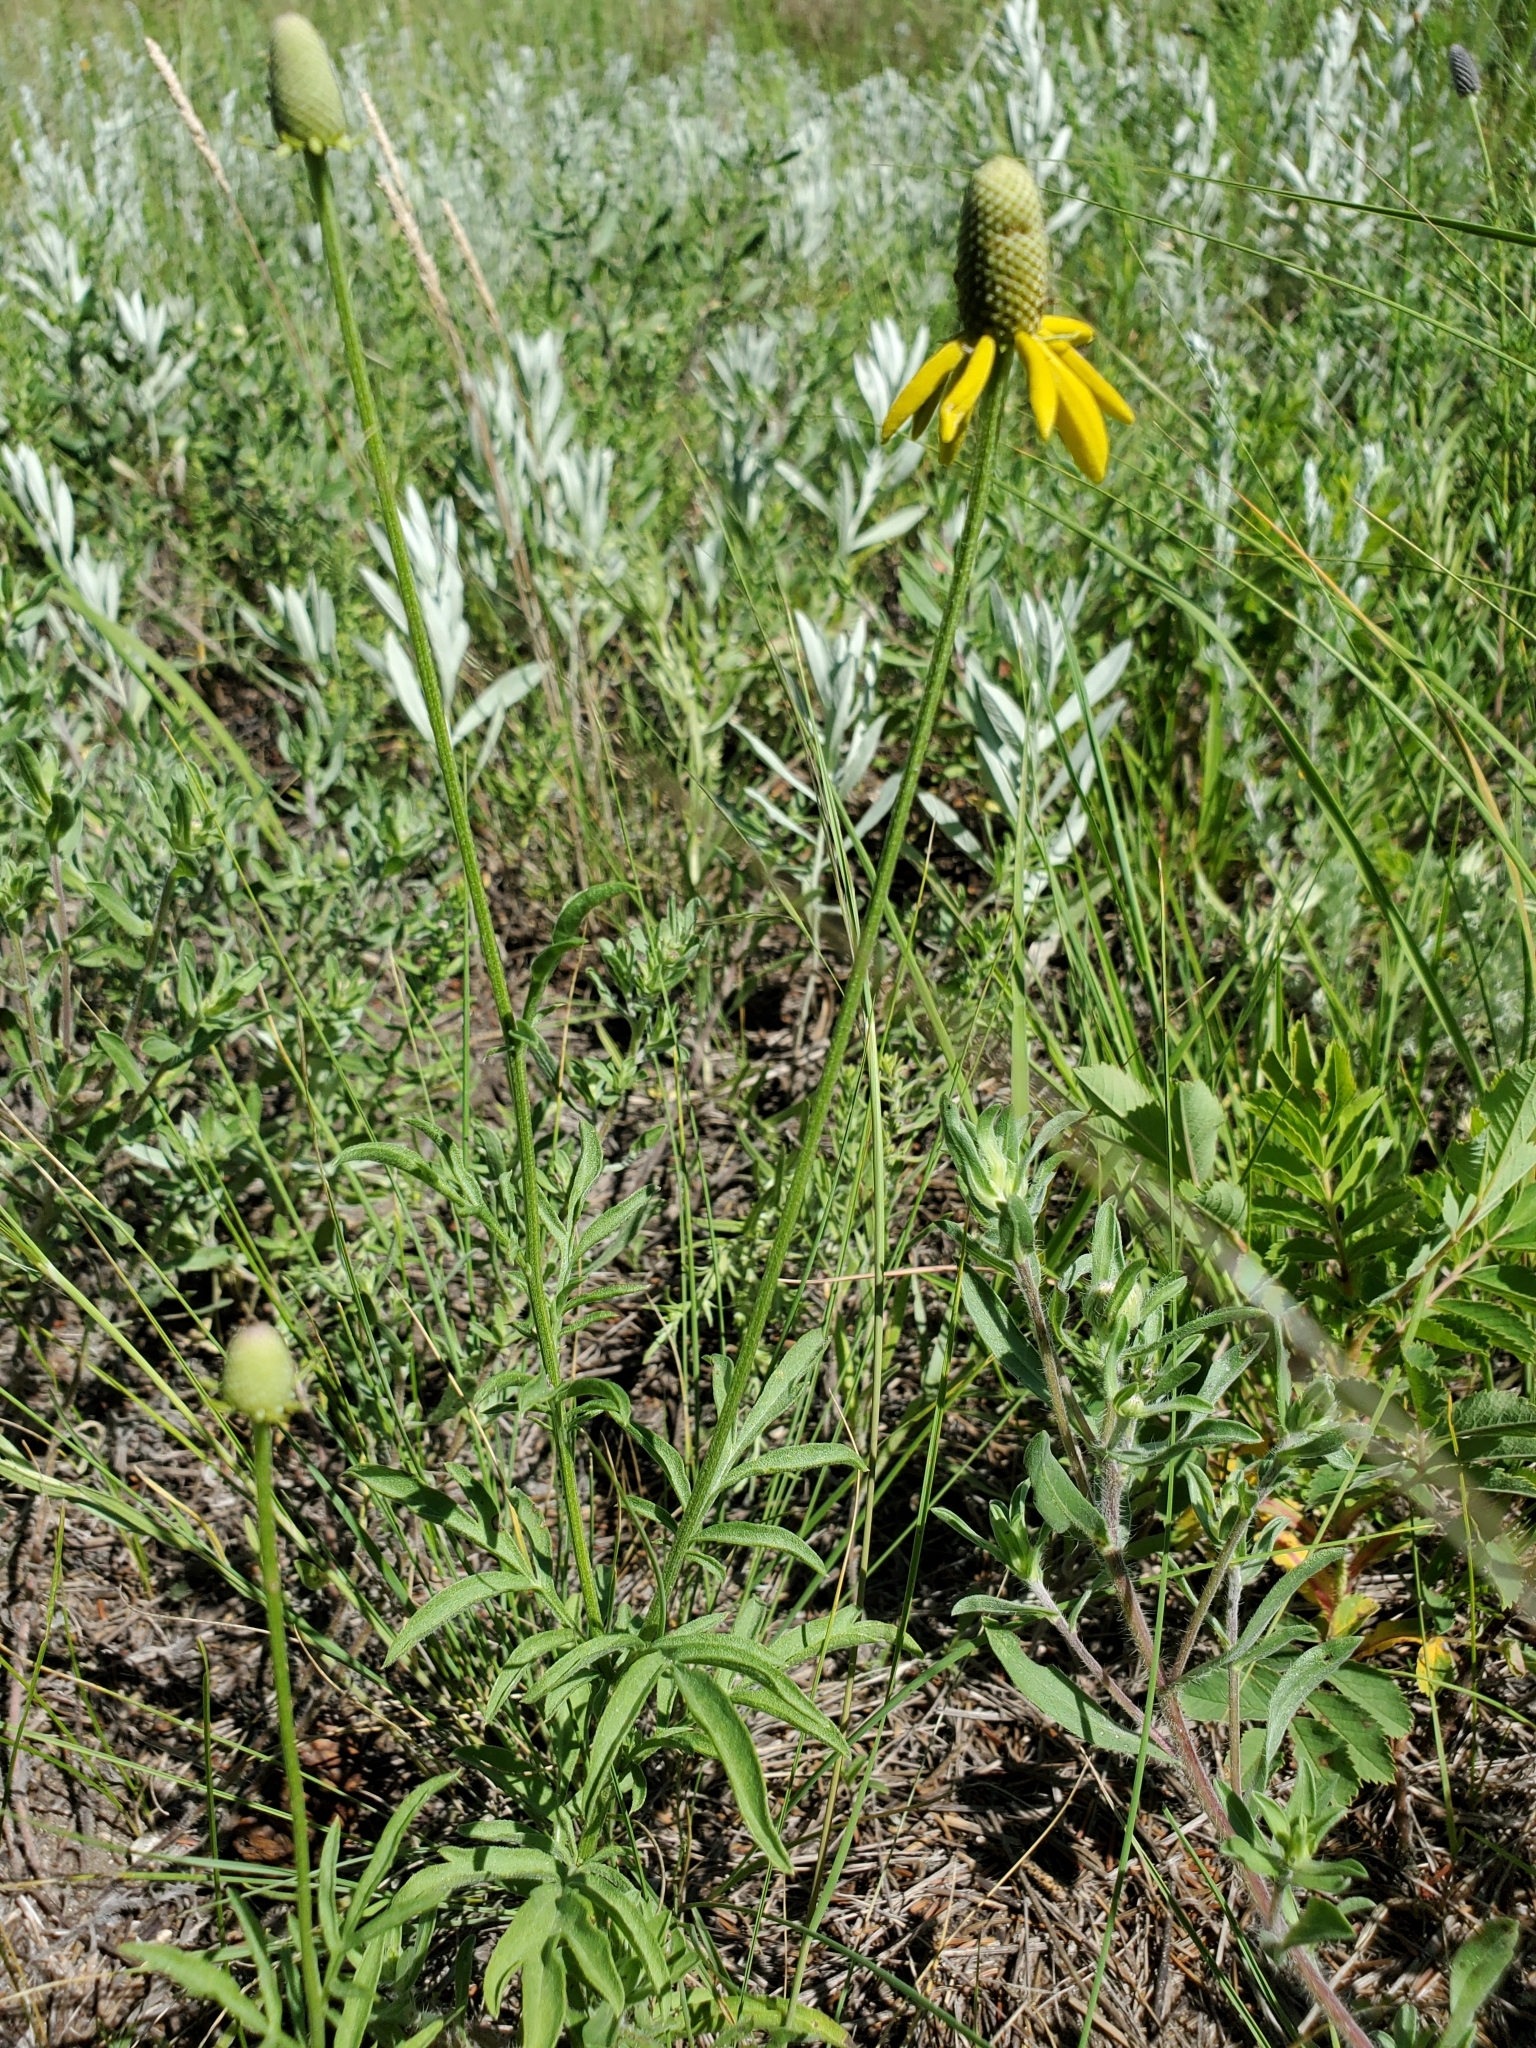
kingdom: Plantae
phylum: Tracheophyta
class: Magnoliopsida
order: Asterales
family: Asteraceae
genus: Ratibida
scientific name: Ratibida columnifera
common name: Prairie coneflower
